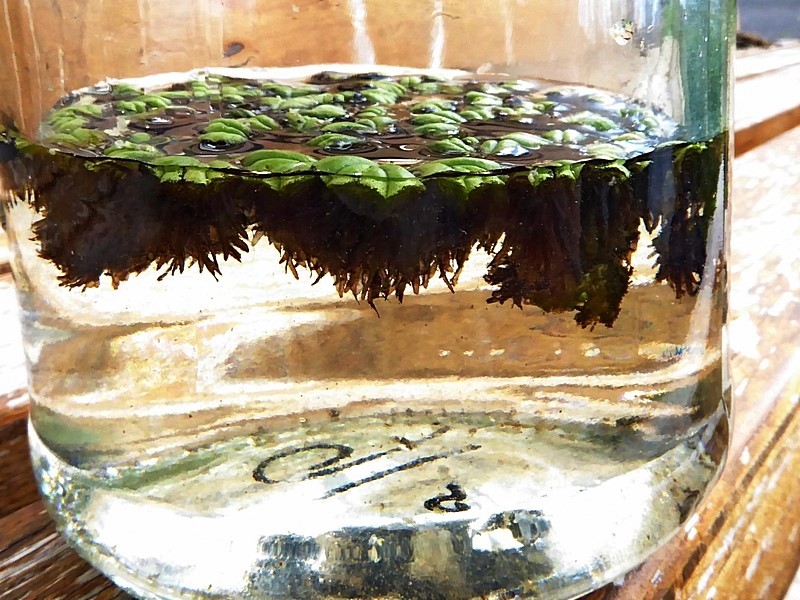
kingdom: Plantae
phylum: Marchantiophyta
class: Marchantiopsida
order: Marchantiales
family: Ricciaceae
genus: Ricciocarpos
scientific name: Ricciocarpos natans
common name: Purple-fringed liverwort
